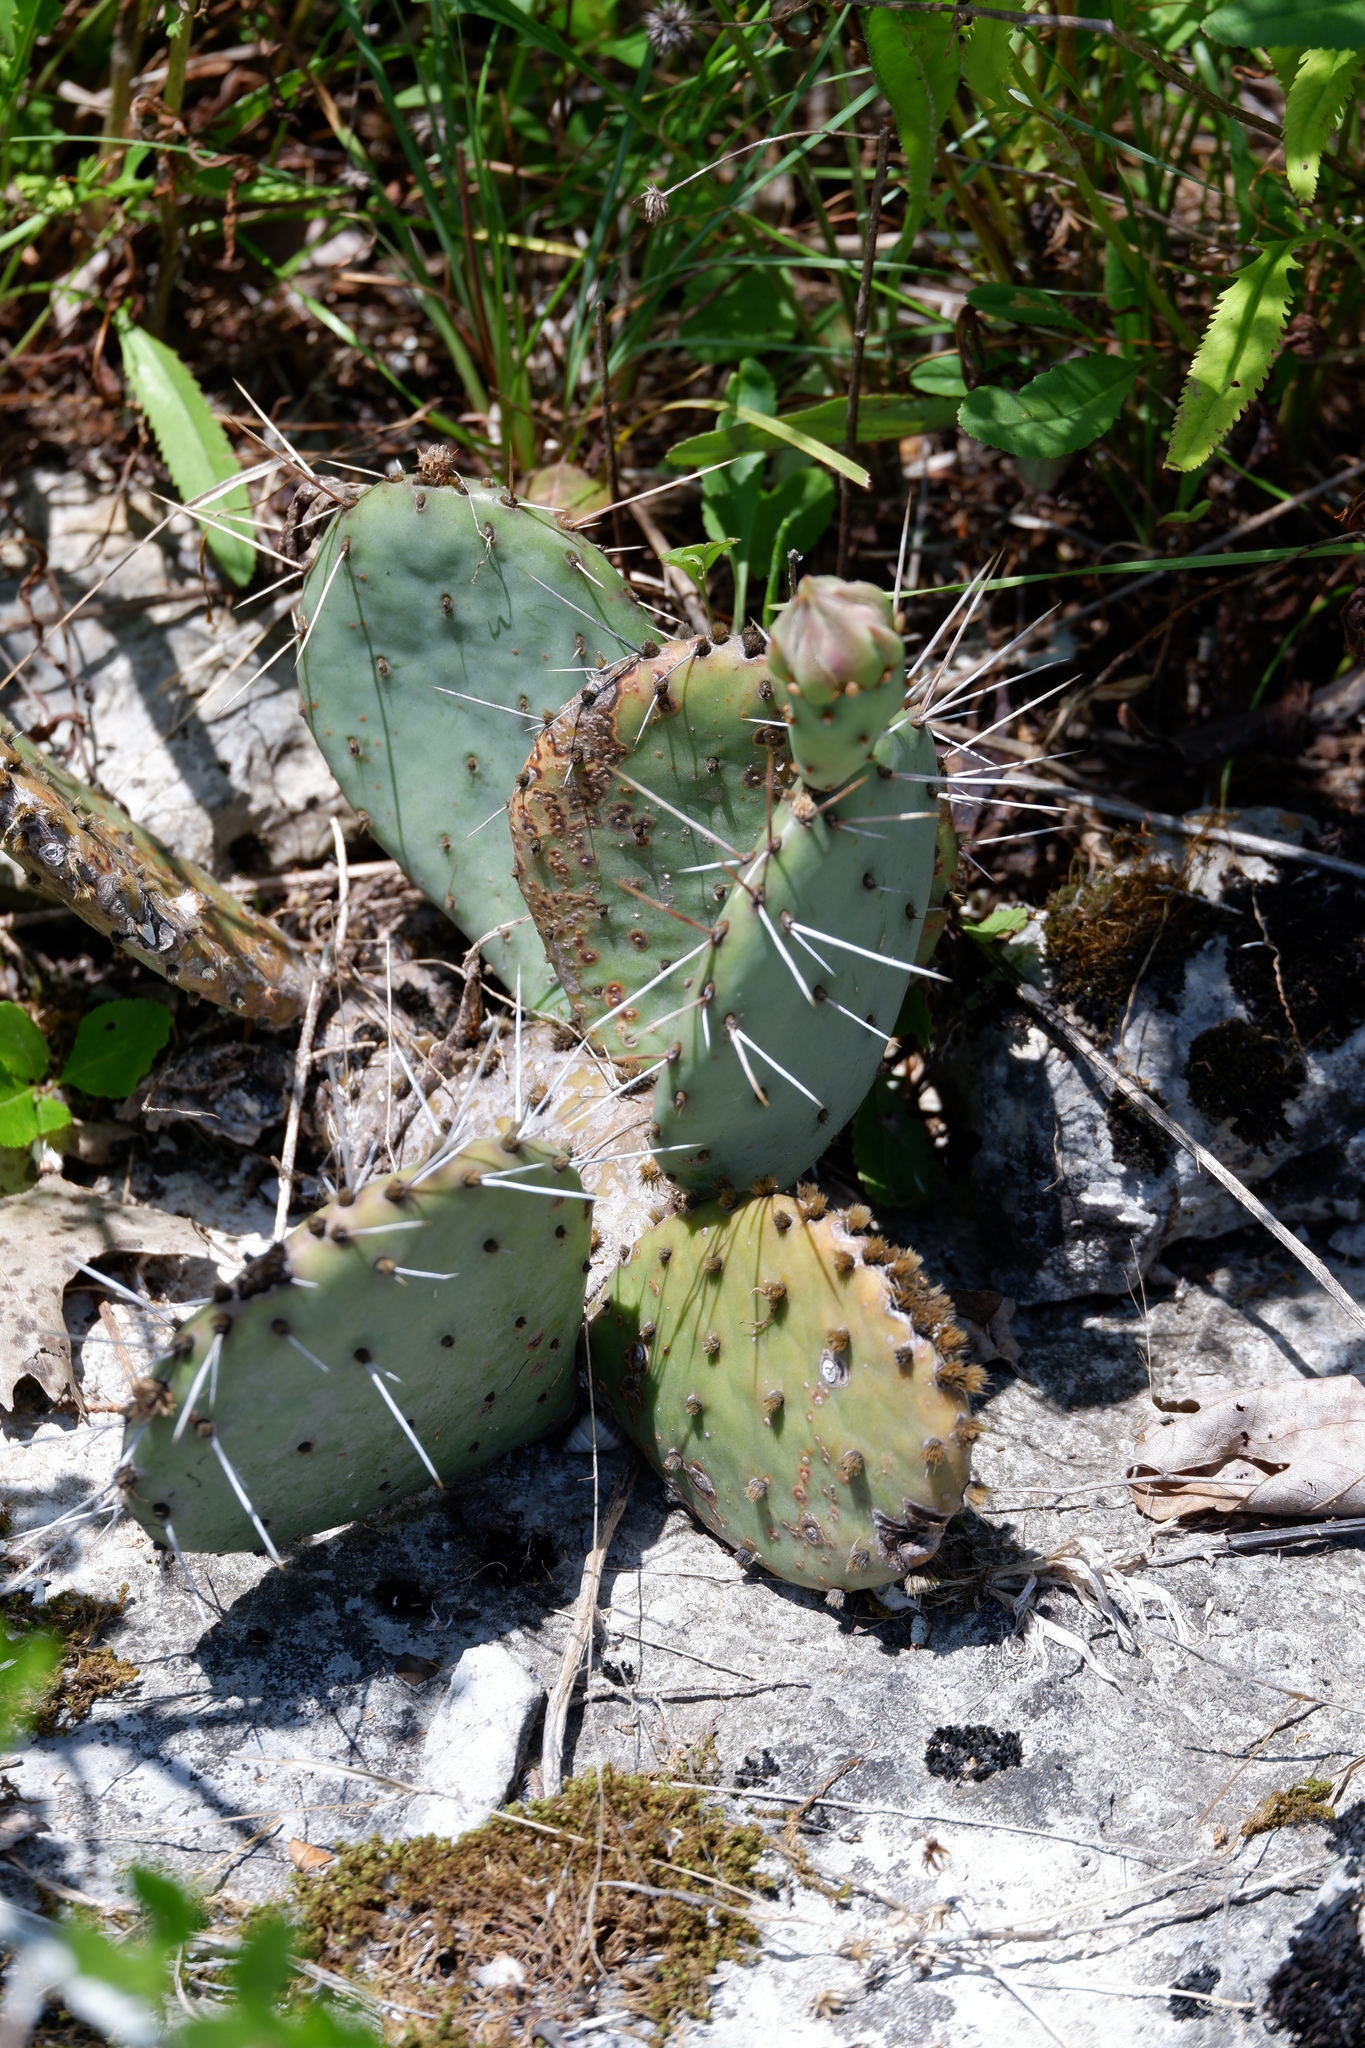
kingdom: Plantae
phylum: Tracheophyta
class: Magnoliopsida
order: Caryophyllales
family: Cactaceae
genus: Opuntia
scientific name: Opuntia macrorhiza
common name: Grassland pricklypear
